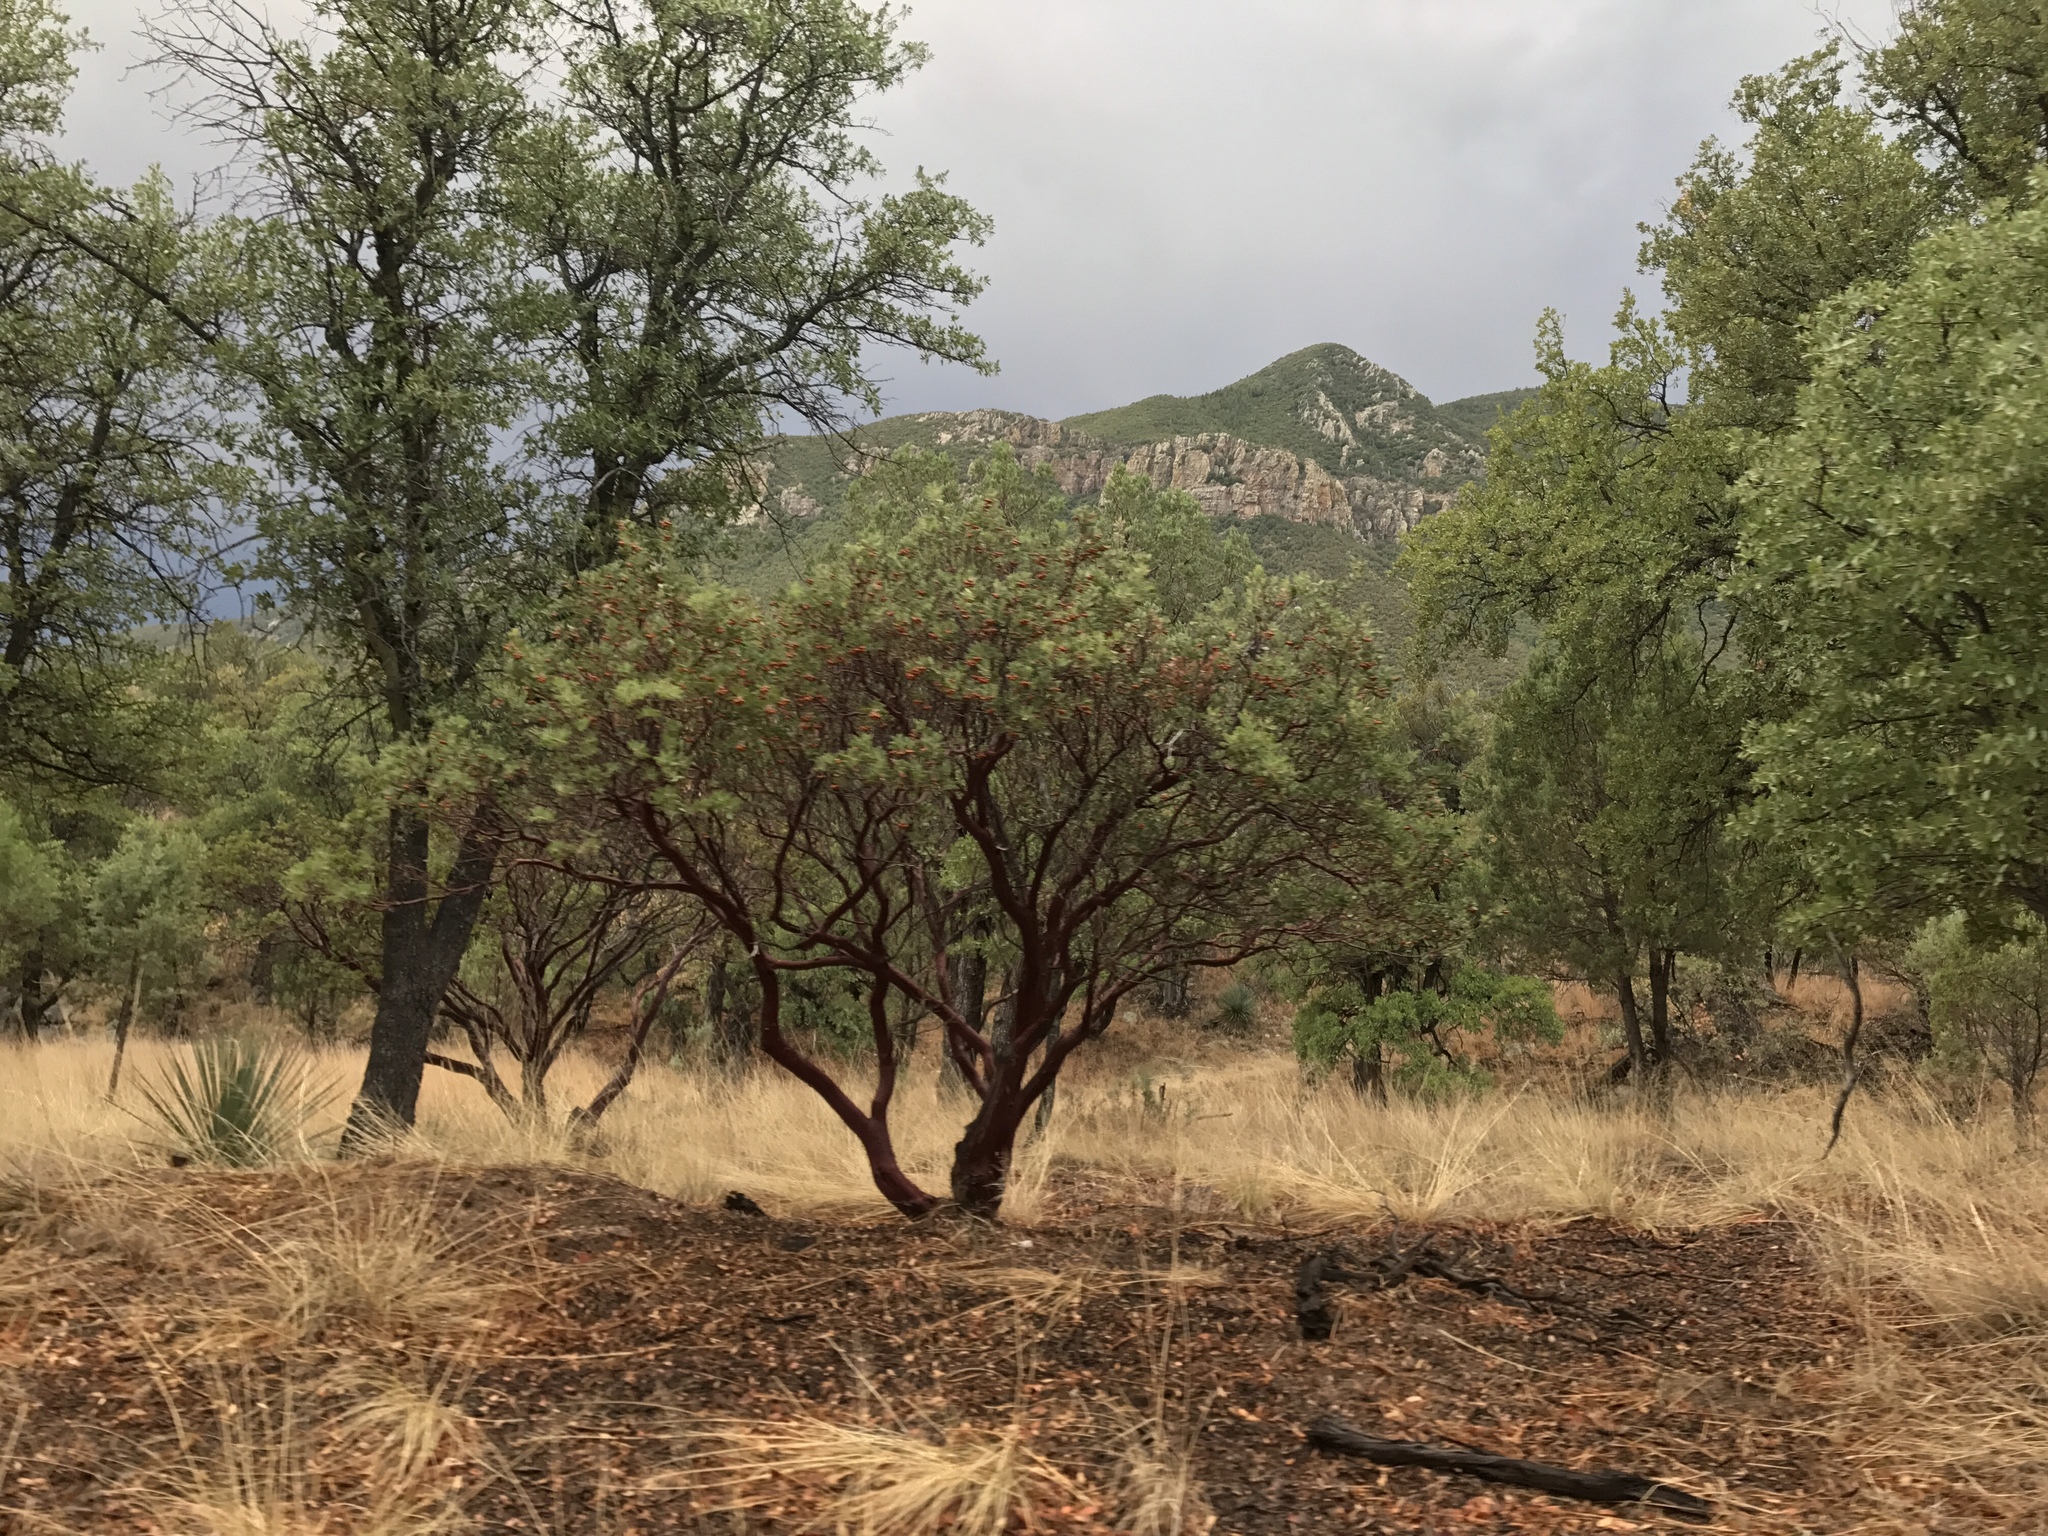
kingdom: Plantae
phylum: Tracheophyta
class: Magnoliopsida
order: Ericales
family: Ericaceae
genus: Arctostaphylos
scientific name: Arctostaphylos pungens
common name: Mexican manzanita
